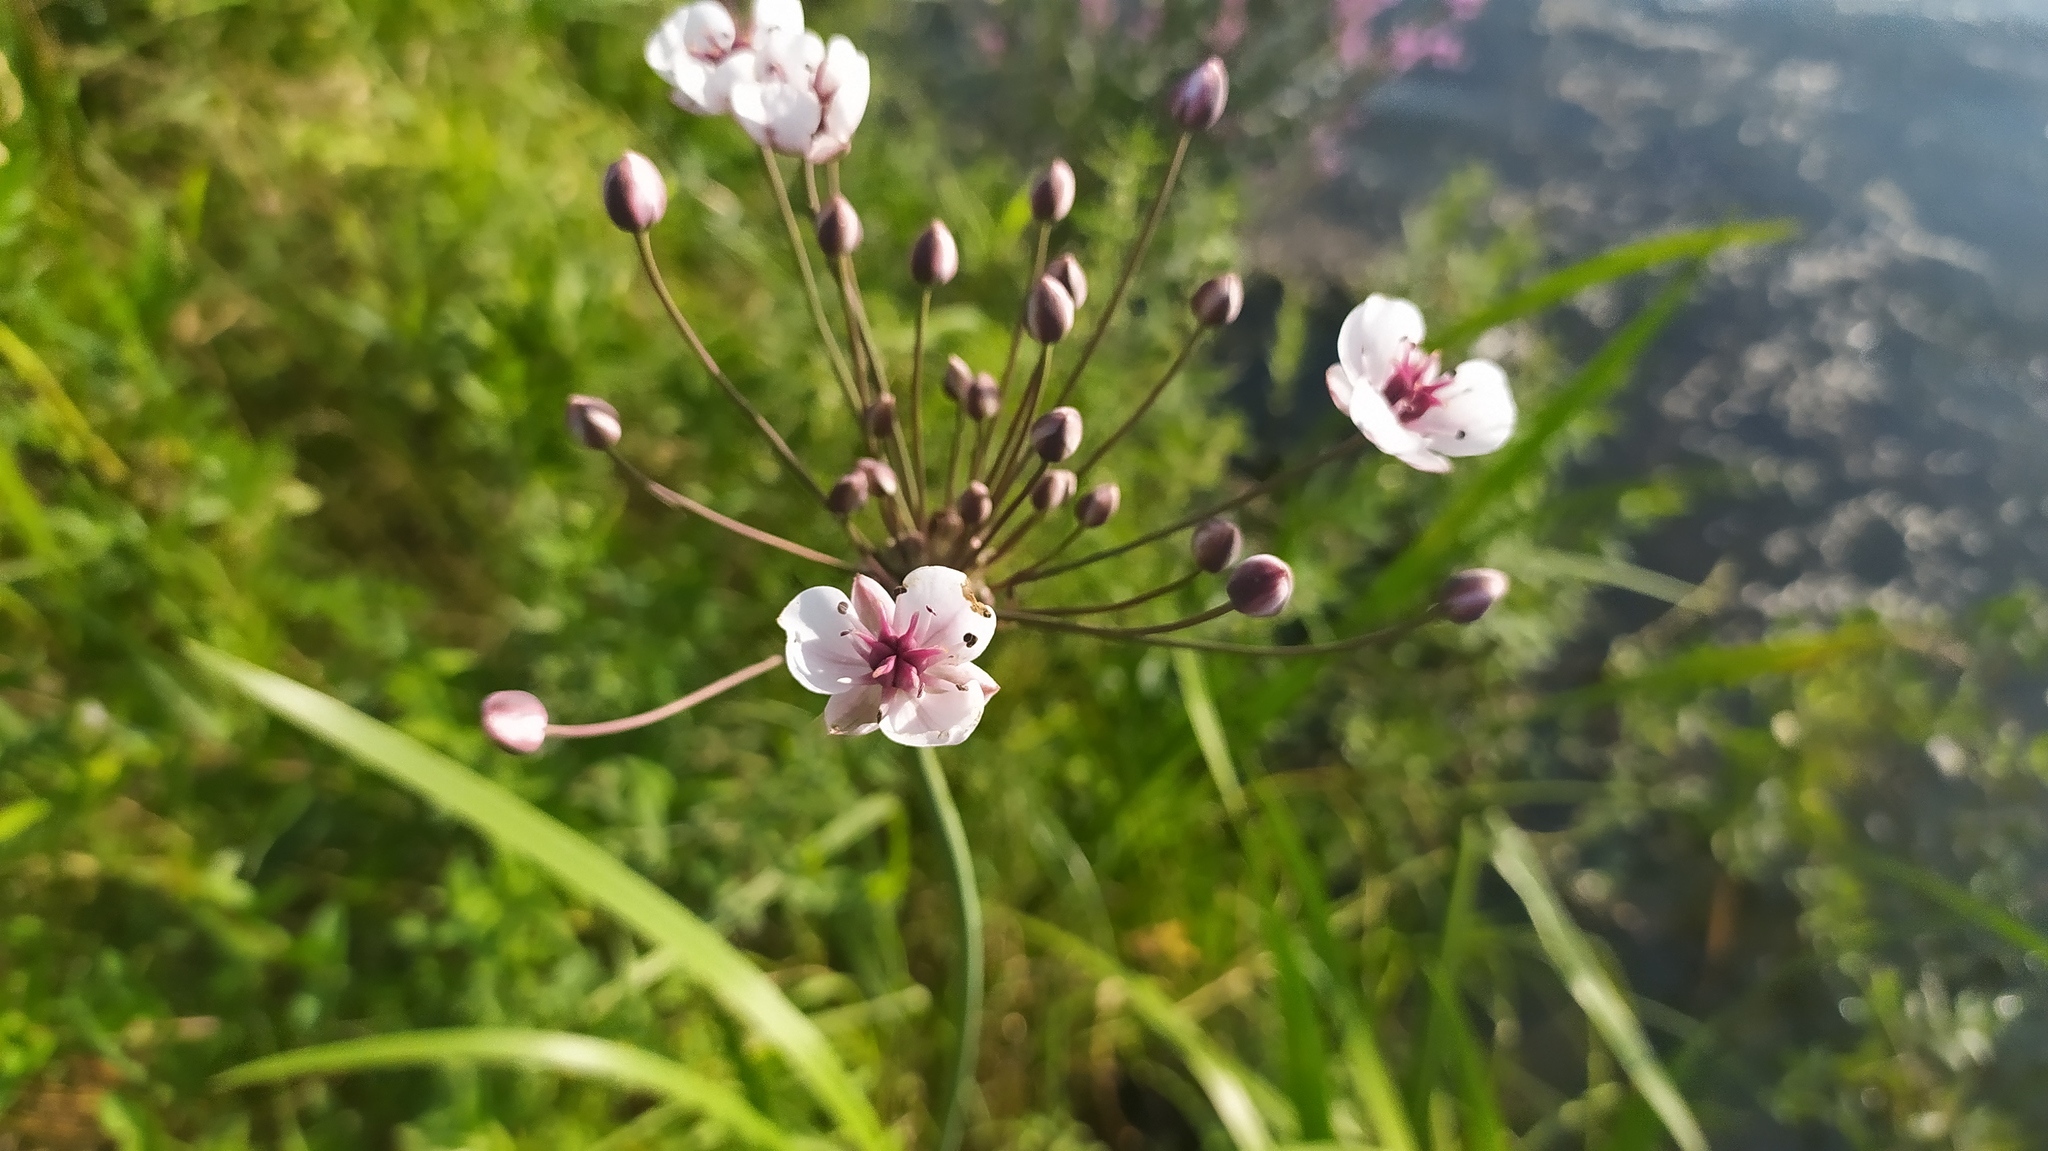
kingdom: Plantae
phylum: Tracheophyta
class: Liliopsida
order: Alismatales
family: Butomaceae
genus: Butomus
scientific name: Butomus umbellatus
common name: Flowering-rush
